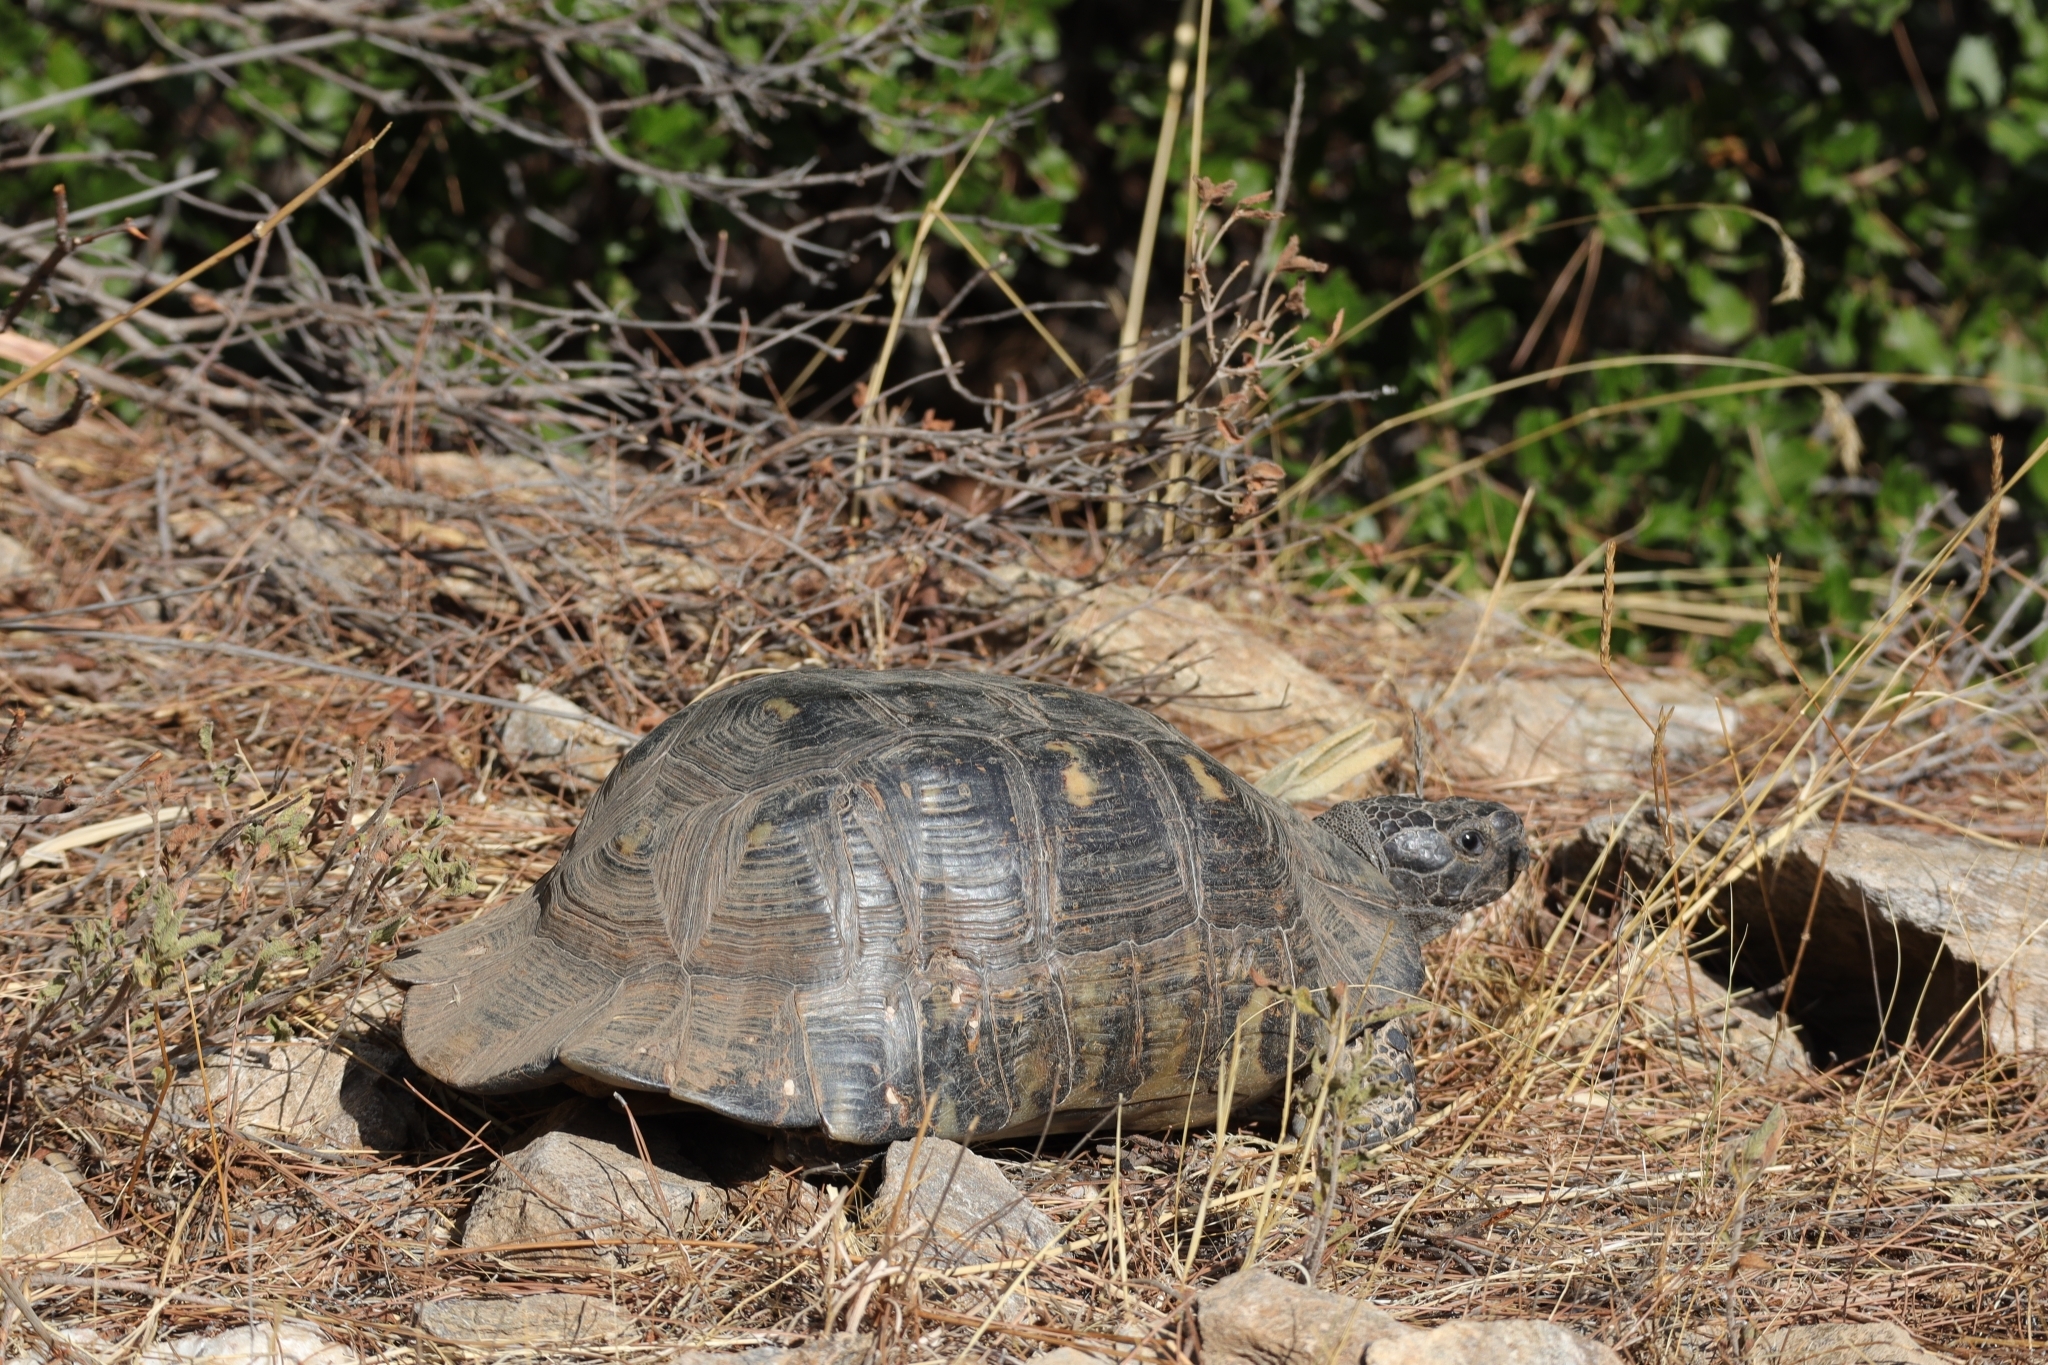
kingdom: Animalia
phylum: Chordata
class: Testudines
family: Testudinidae
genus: Testudo
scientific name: Testudo marginata
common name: Marginated tortoise
